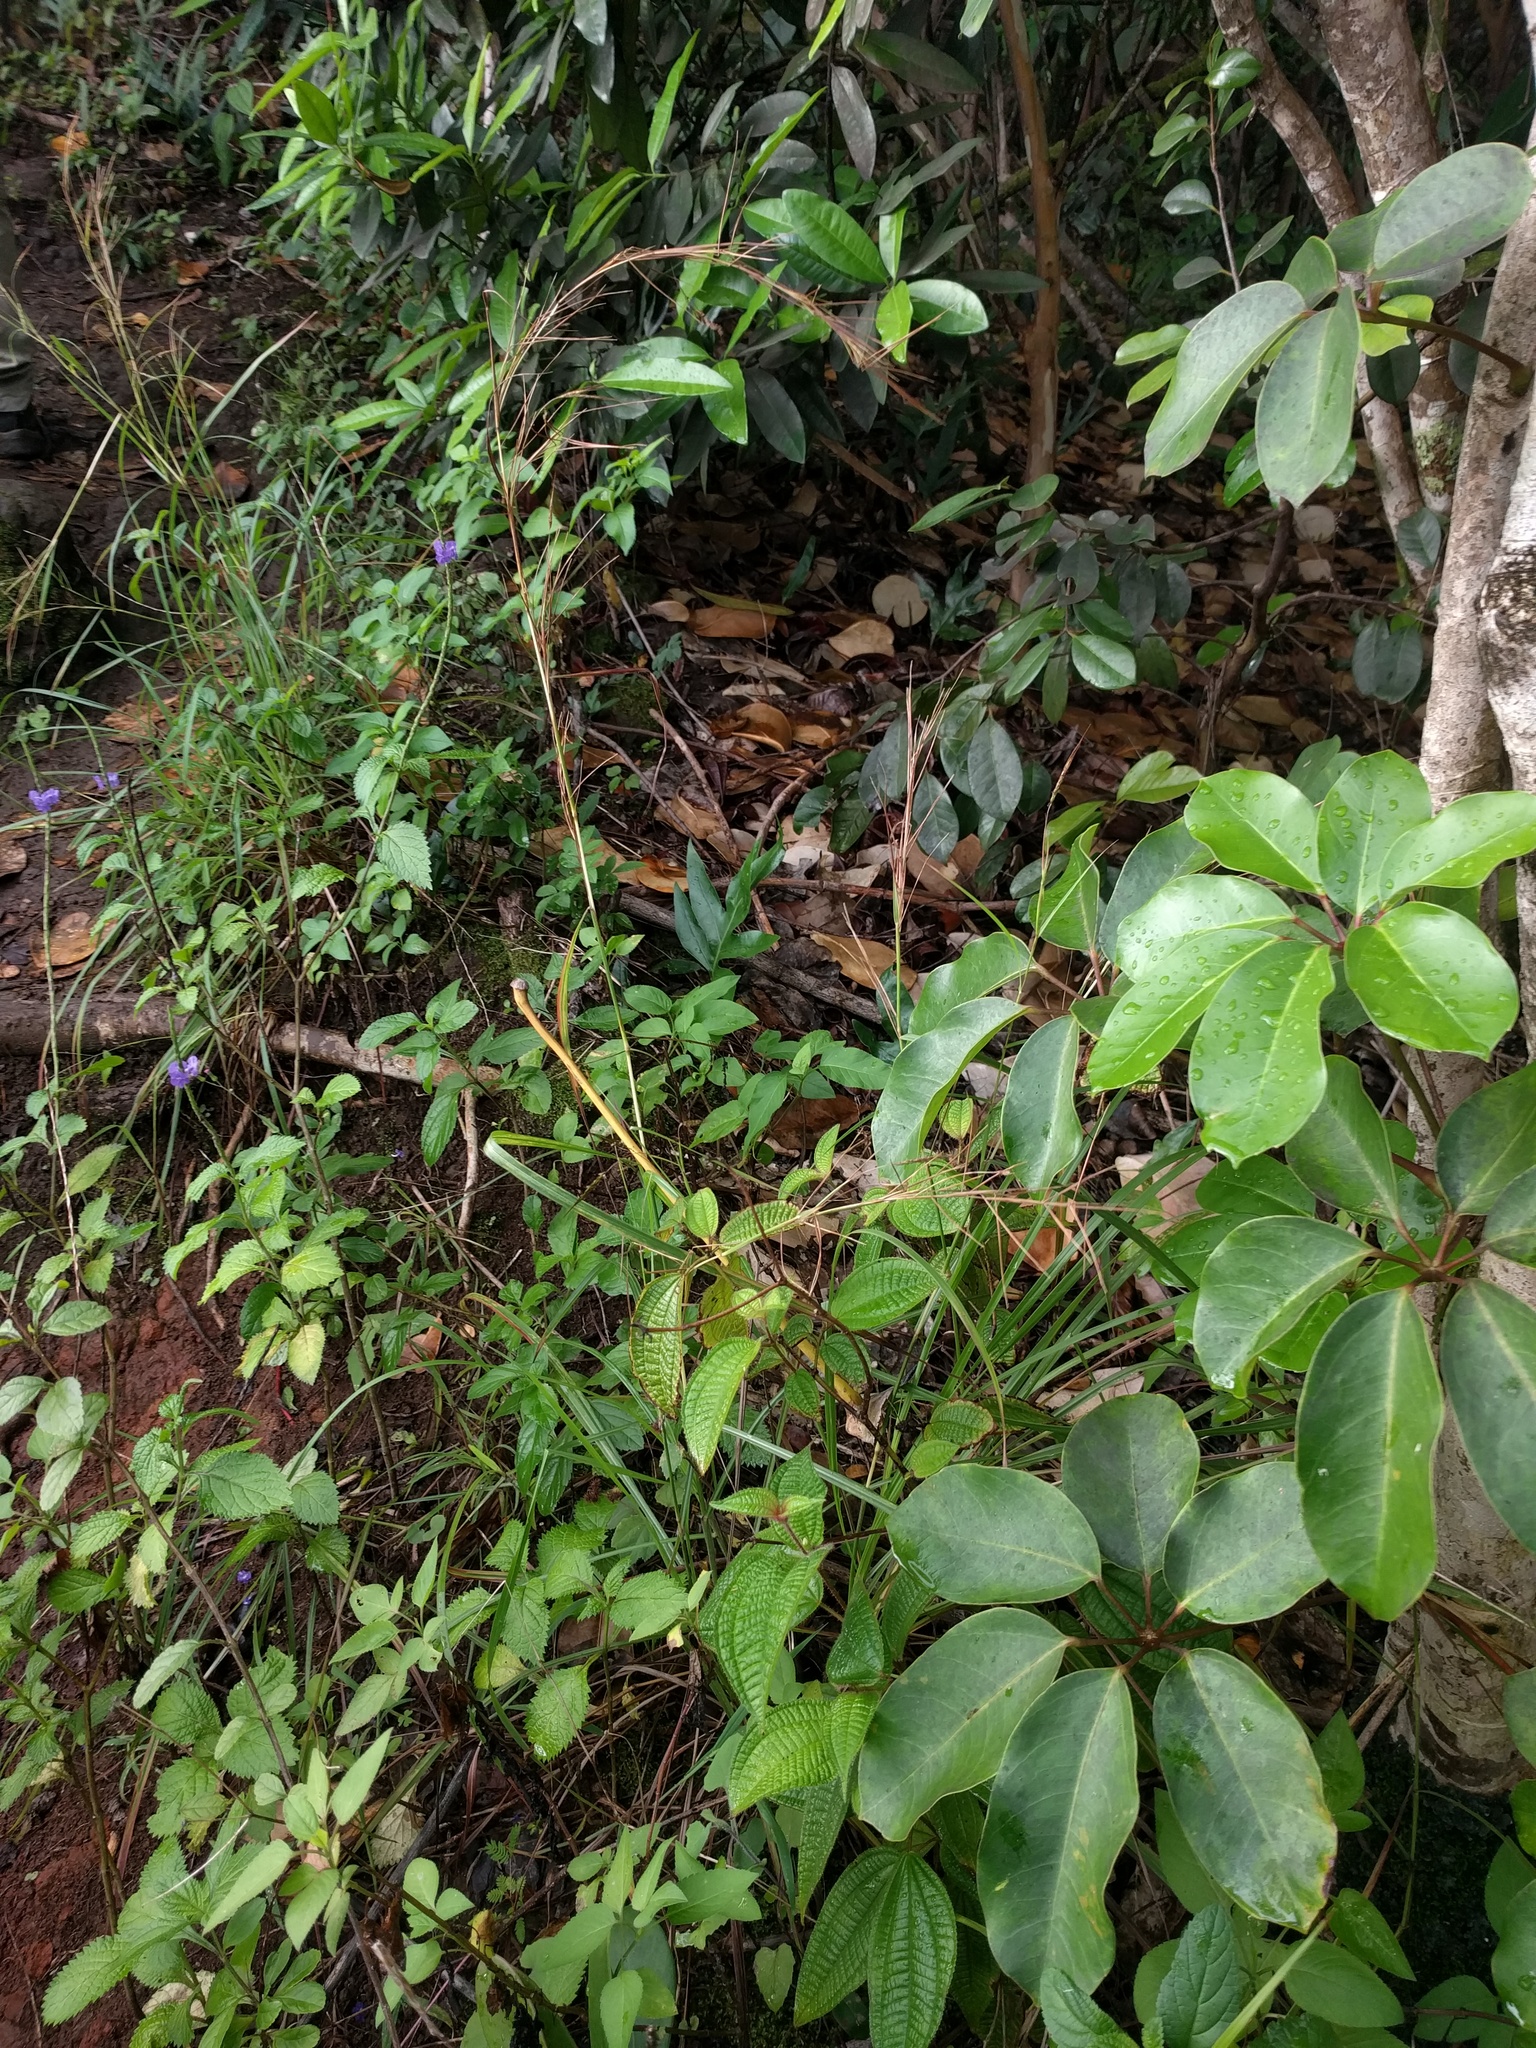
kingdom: Plantae
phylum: Tracheophyta
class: Magnoliopsida
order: Apiales
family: Araliaceae
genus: Heptapleurum
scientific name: Heptapleurum actinophyllum
